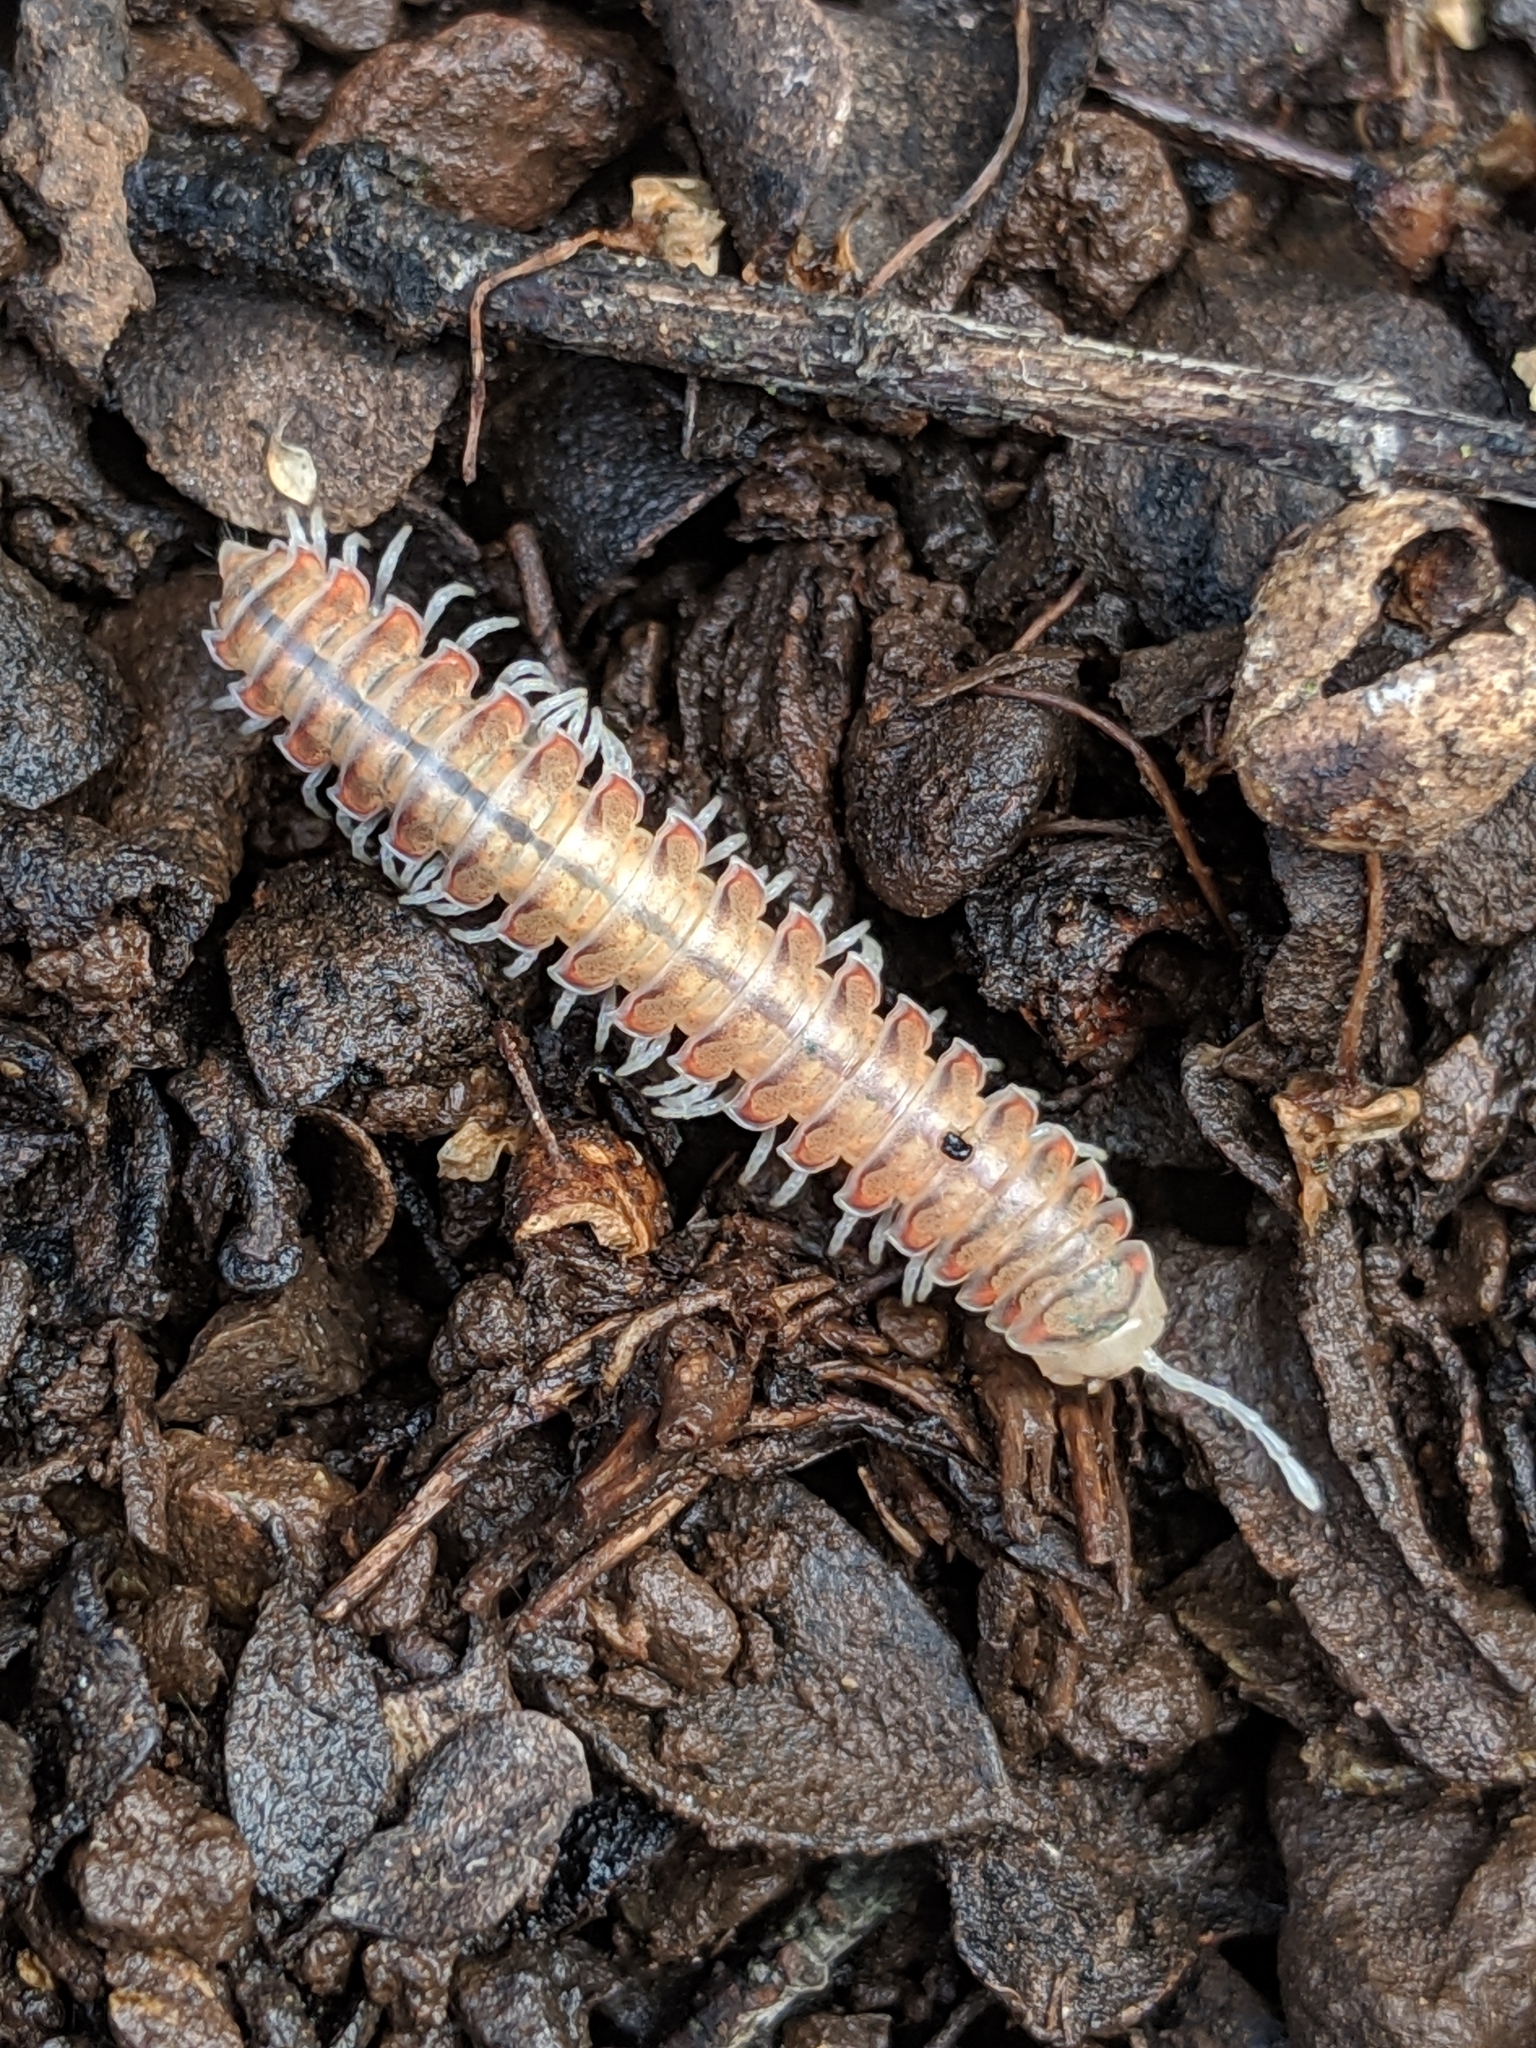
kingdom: Animalia
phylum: Arthropoda
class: Diplopoda
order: Polydesmida
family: Xystodesmidae
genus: Motyxia
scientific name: Motyxia bistipita
